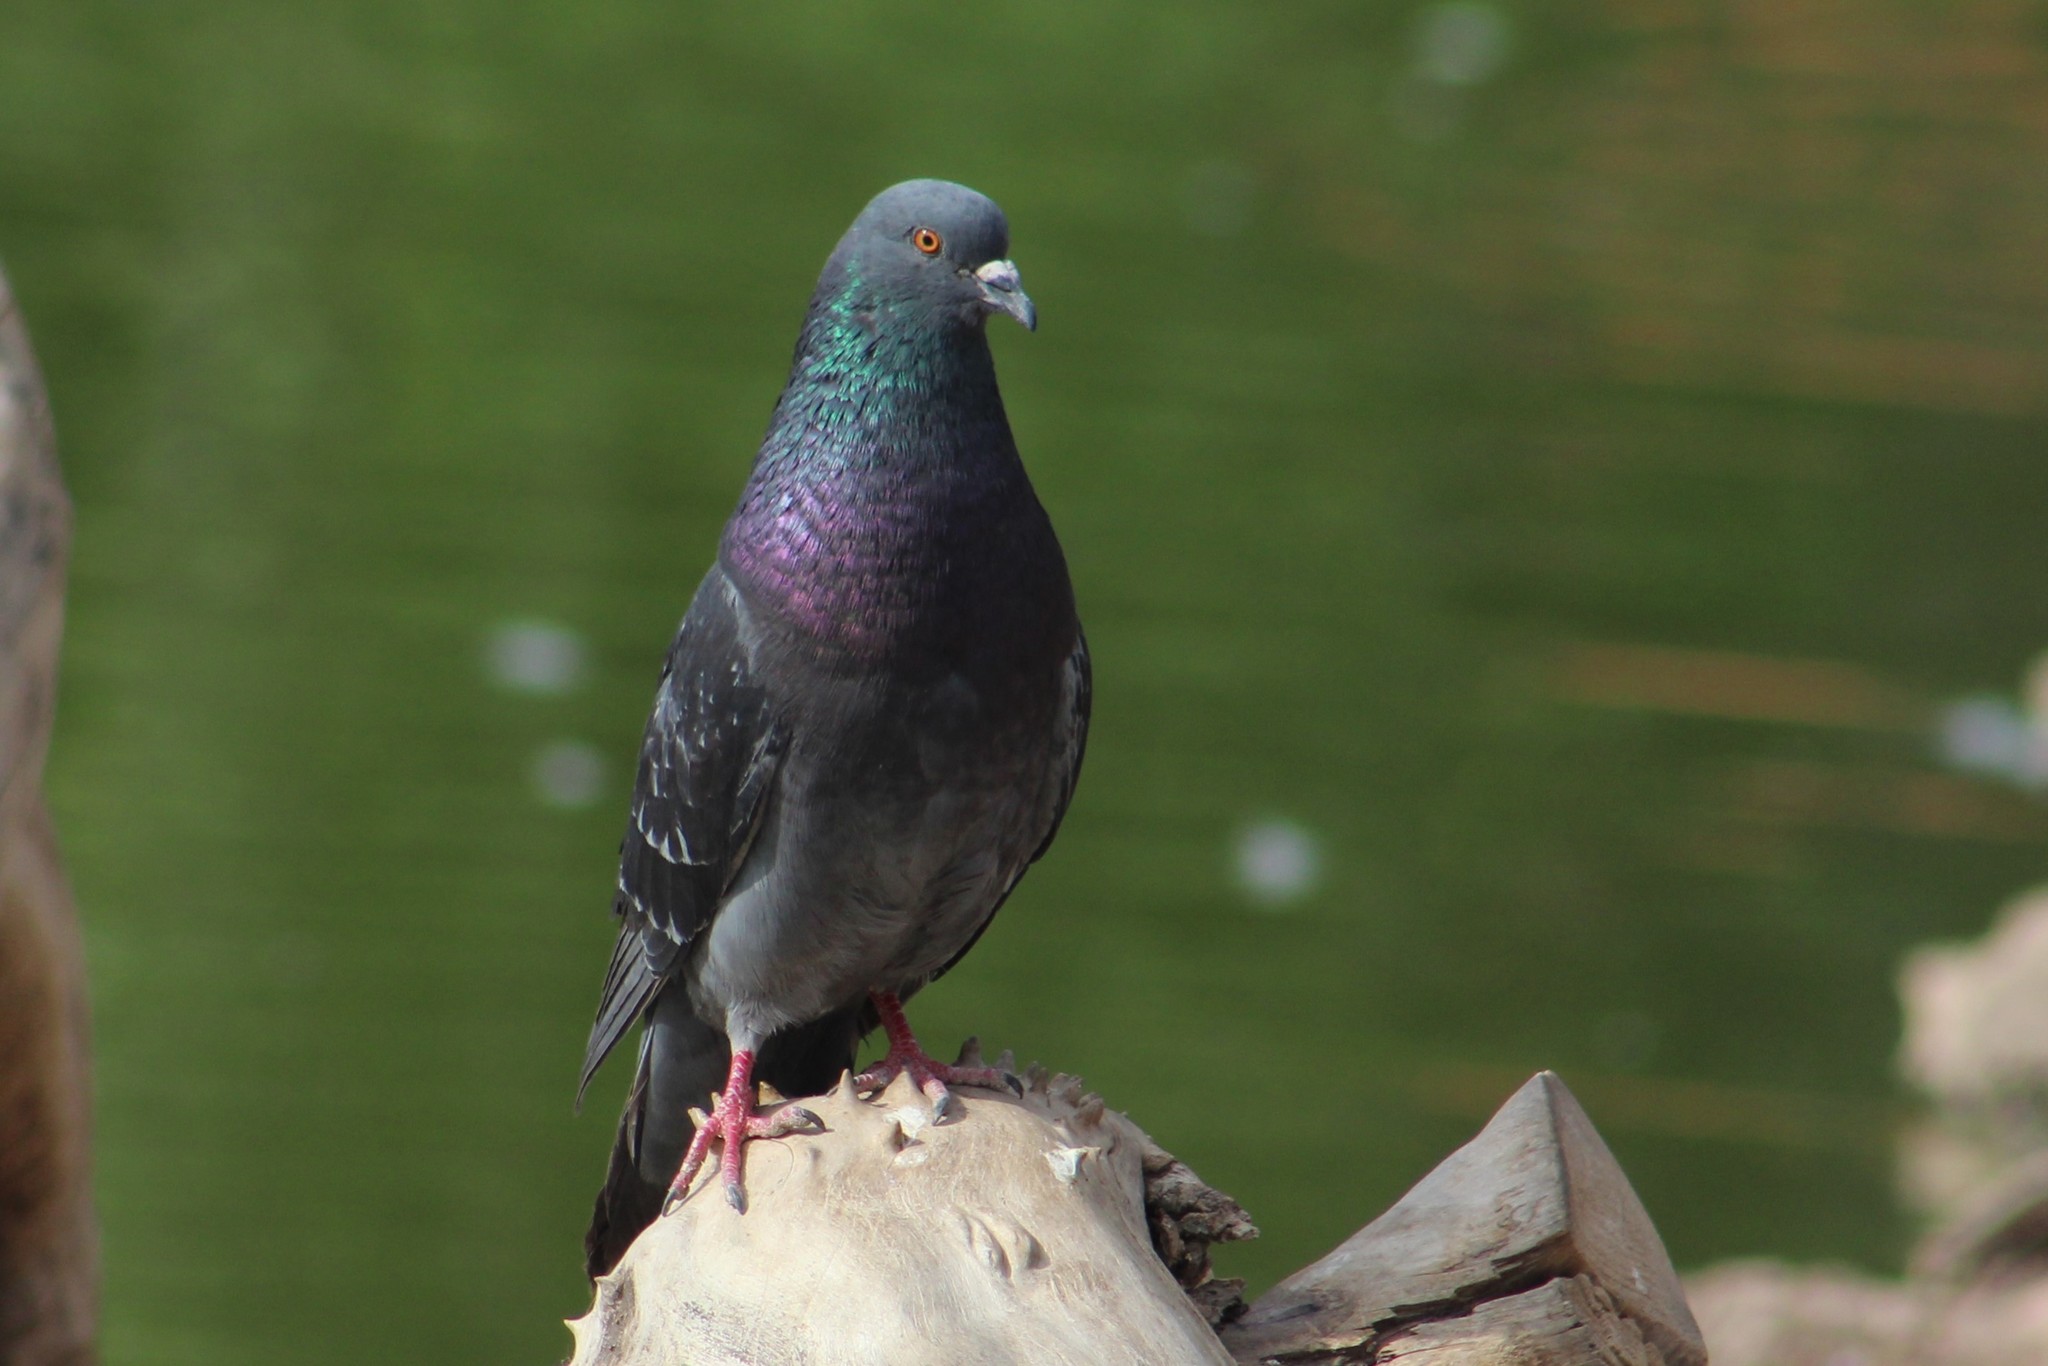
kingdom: Animalia
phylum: Chordata
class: Aves
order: Columbiformes
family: Columbidae
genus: Columba
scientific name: Columba livia
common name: Rock pigeon
